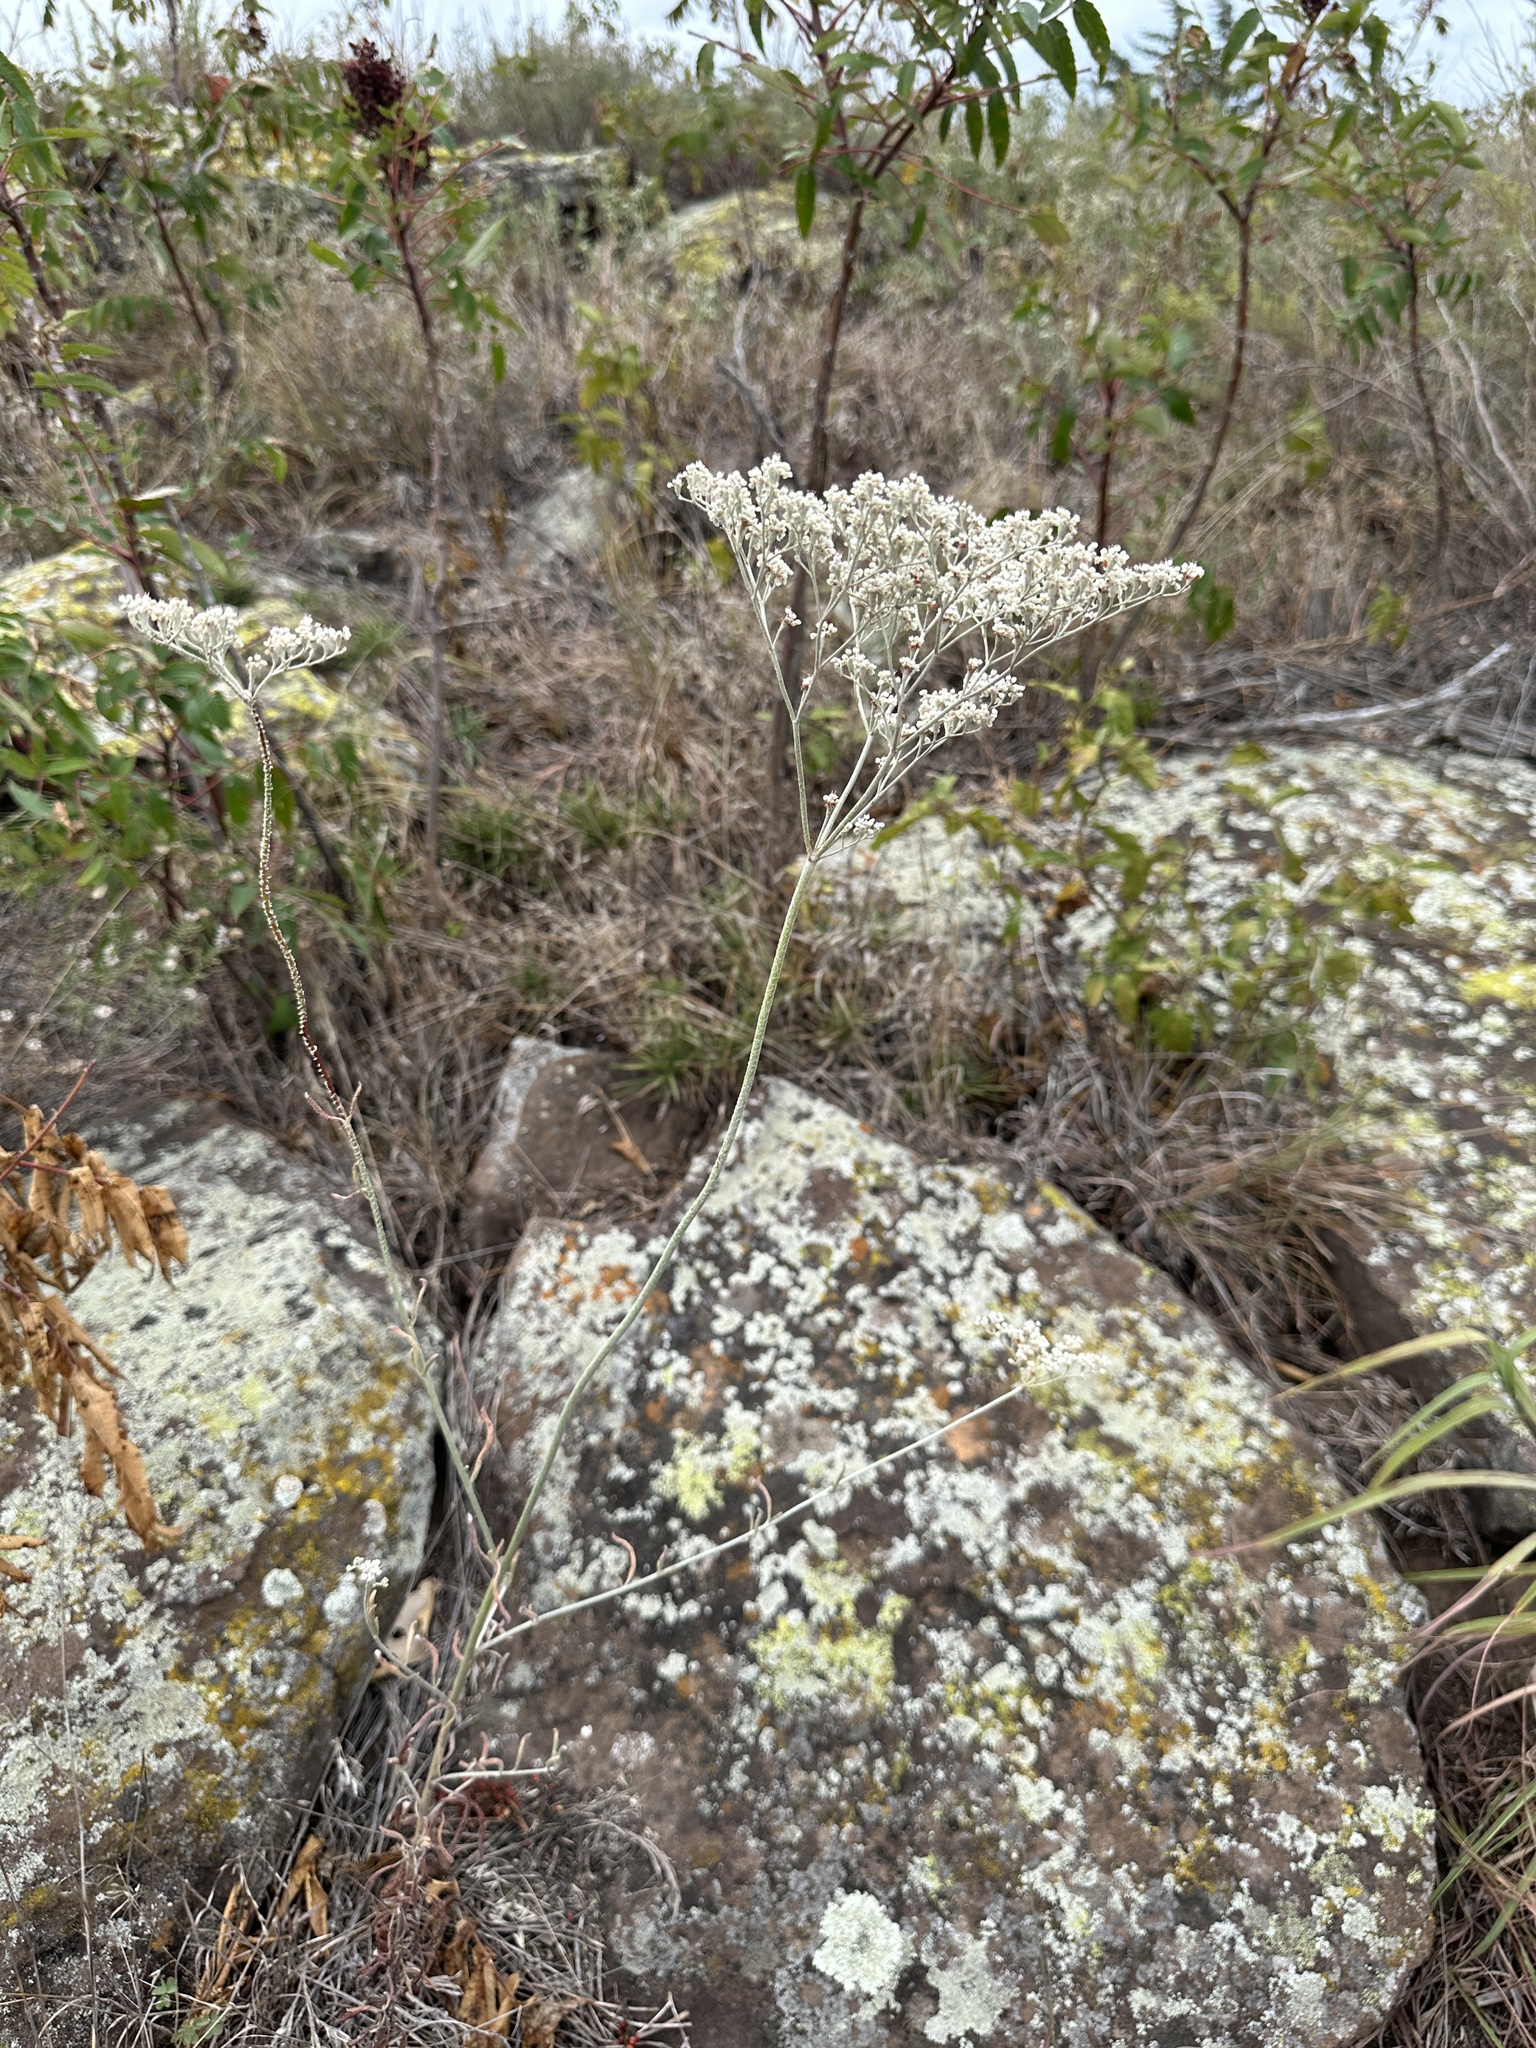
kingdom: Plantae
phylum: Tracheophyta
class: Magnoliopsida
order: Caryophyllales
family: Polygonaceae
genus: Eriogonum
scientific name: Eriogonum annuum
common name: Annual wild buckwheat
